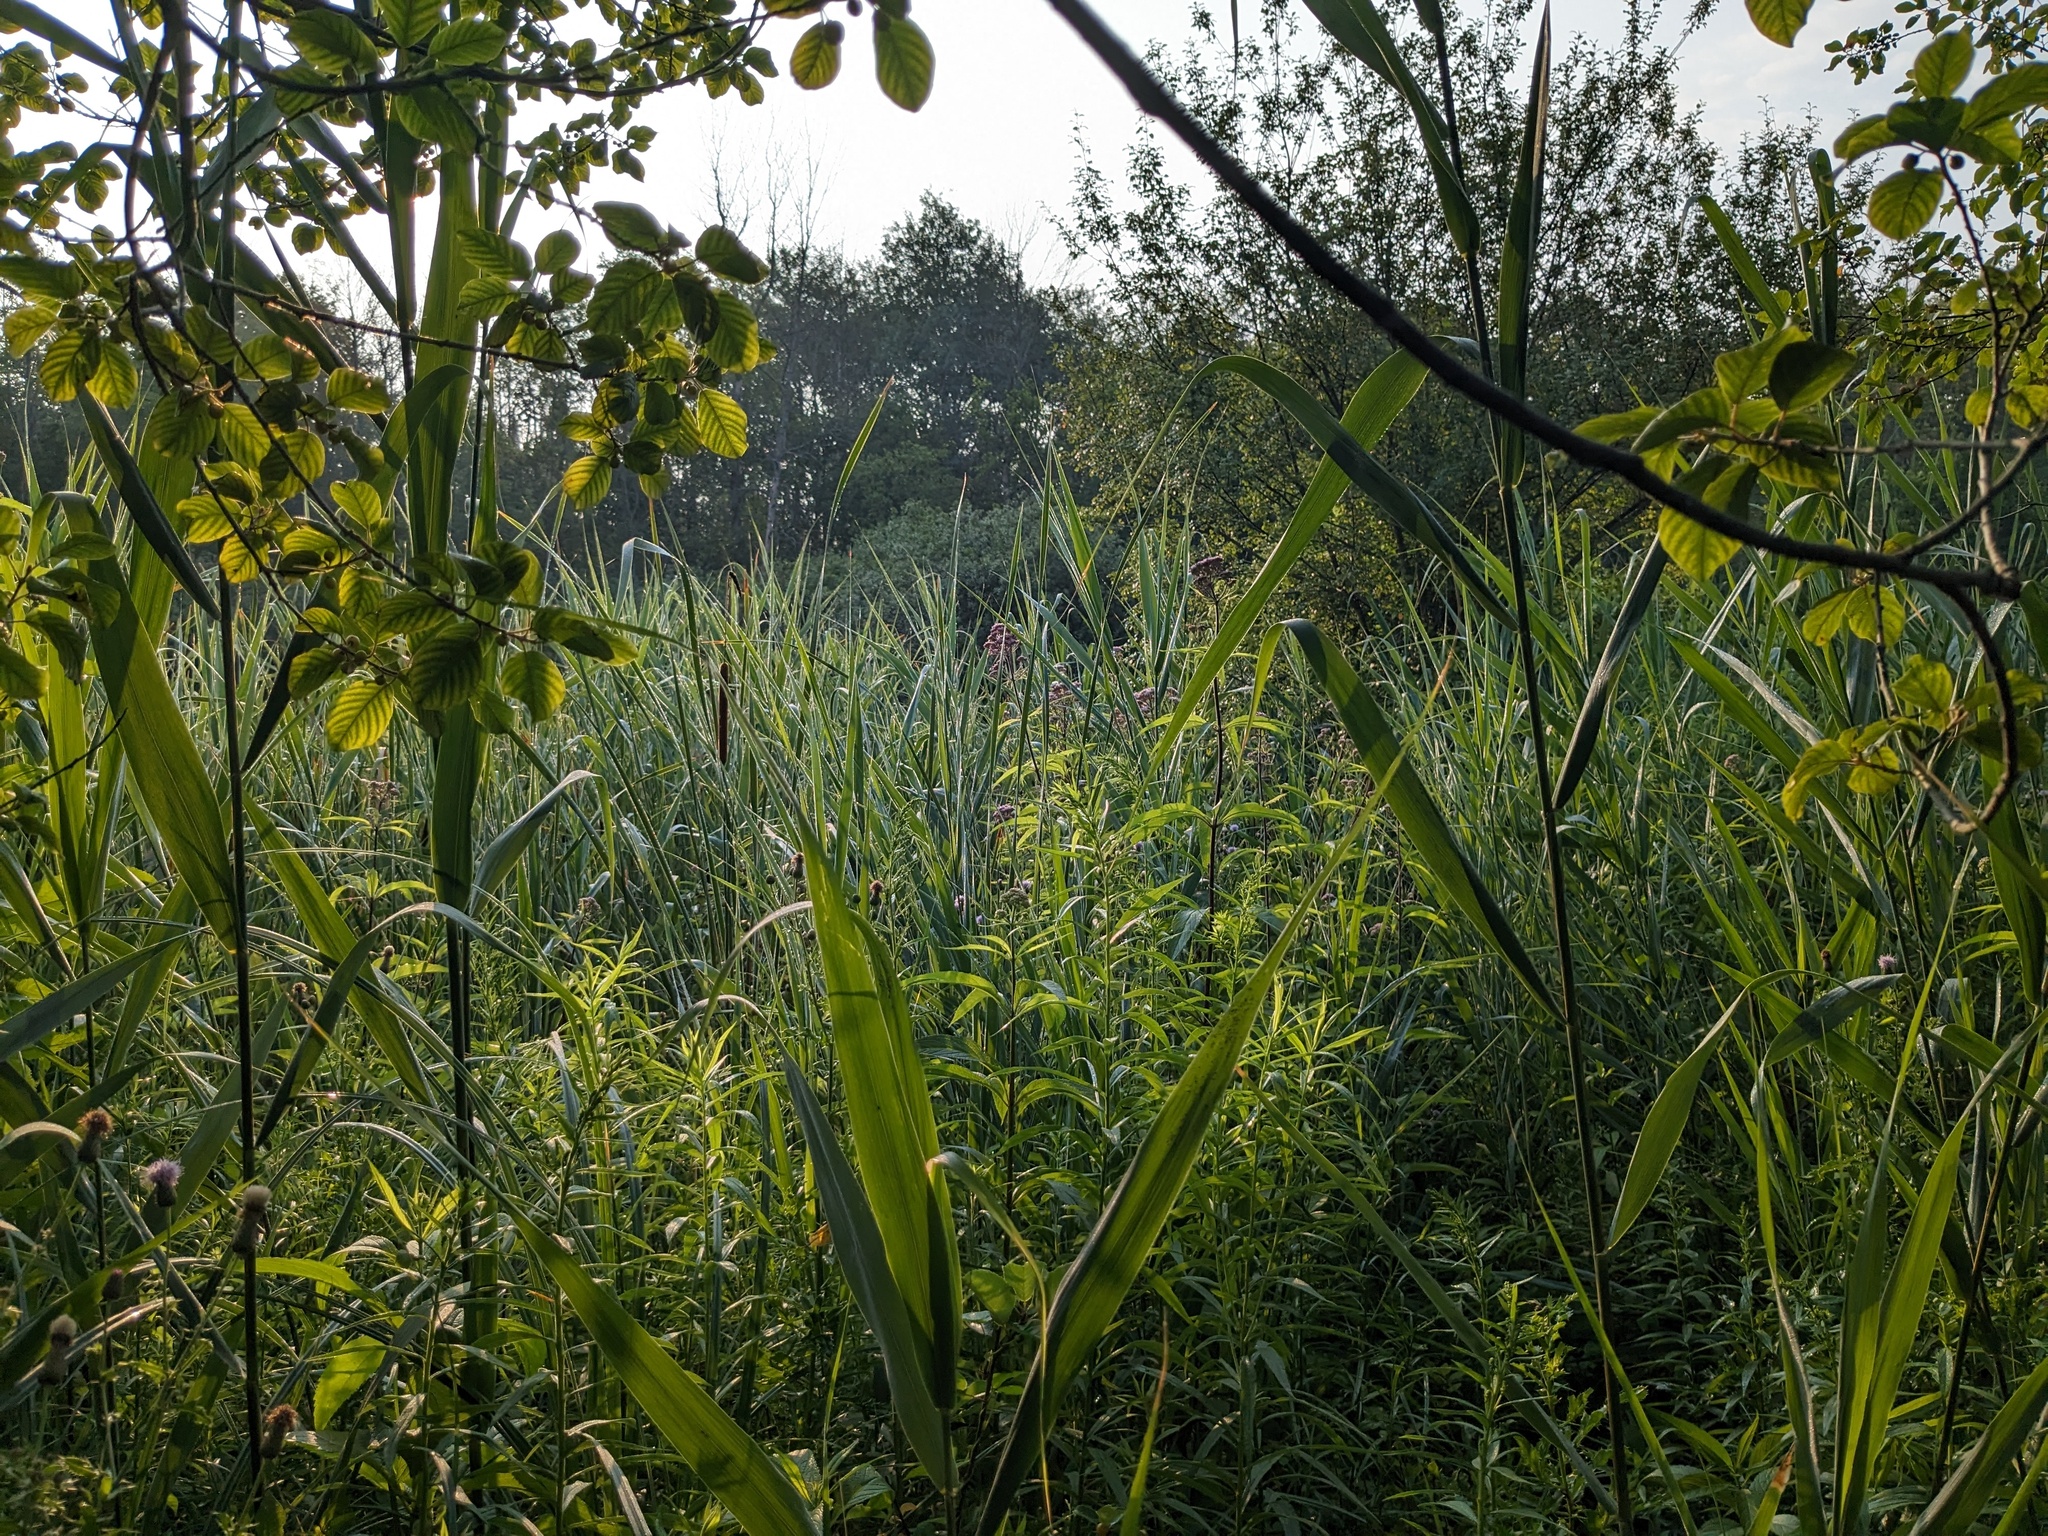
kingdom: Plantae
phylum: Tracheophyta
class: Liliopsida
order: Poales
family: Poaceae
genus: Phragmites
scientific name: Phragmites australis
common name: Common reed
